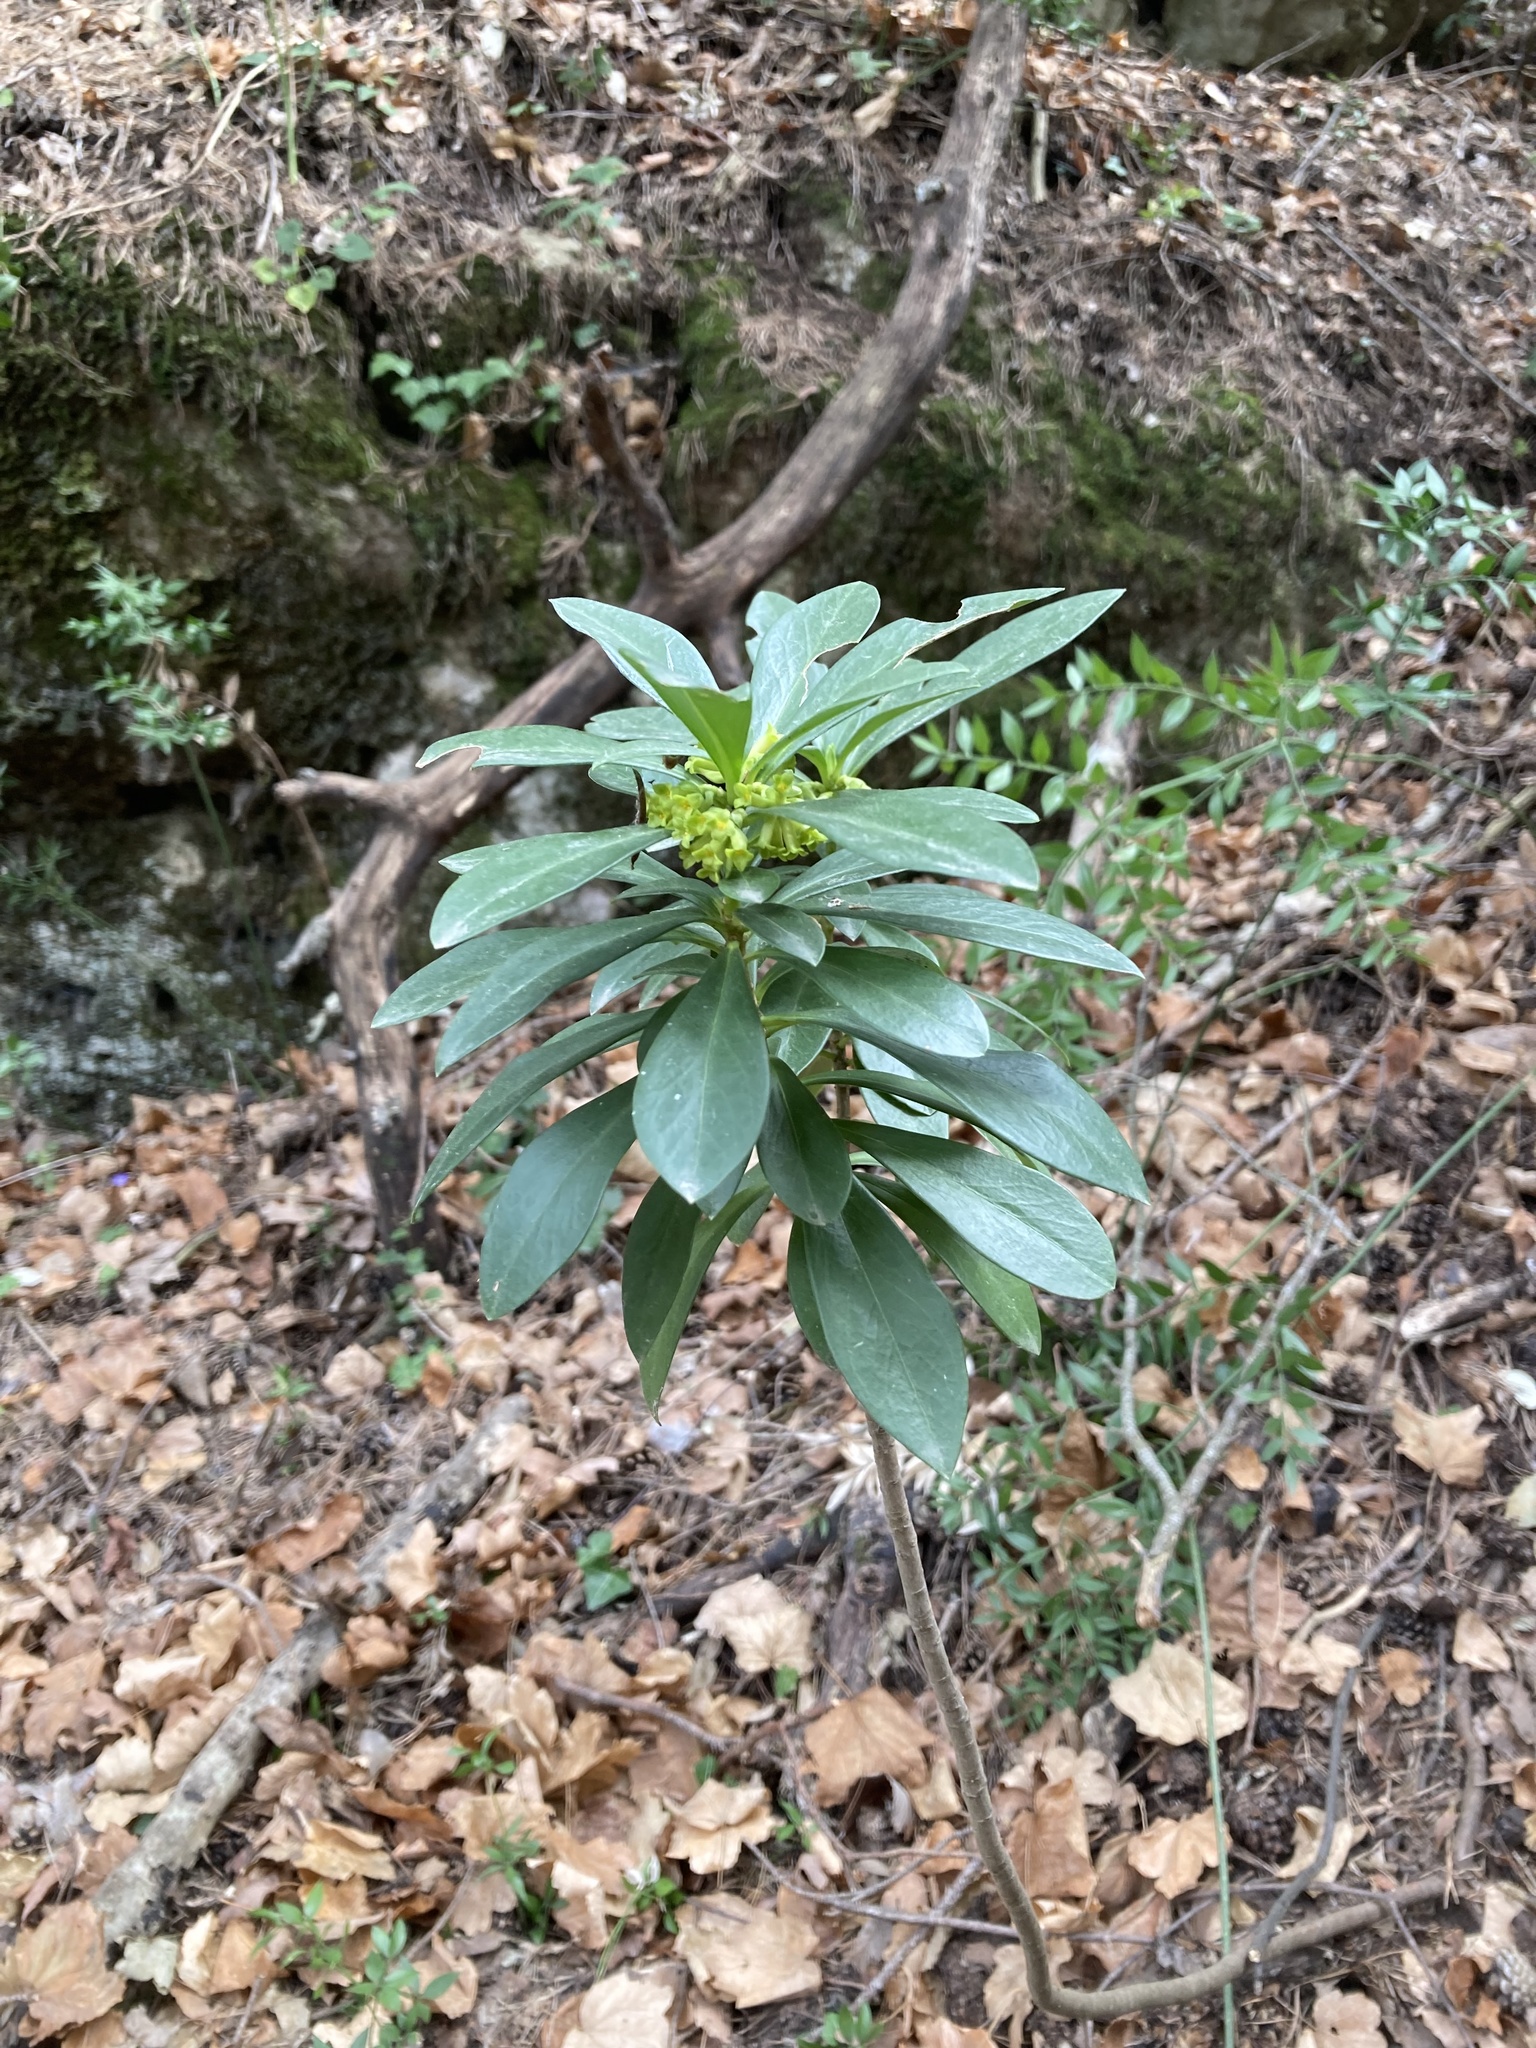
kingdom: Plantae
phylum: Tracheophyta
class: Magnoliopsida
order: Malvales
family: Thymelaeaceae
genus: Daphne
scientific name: Daphne laureola
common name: Spurge-laurel
